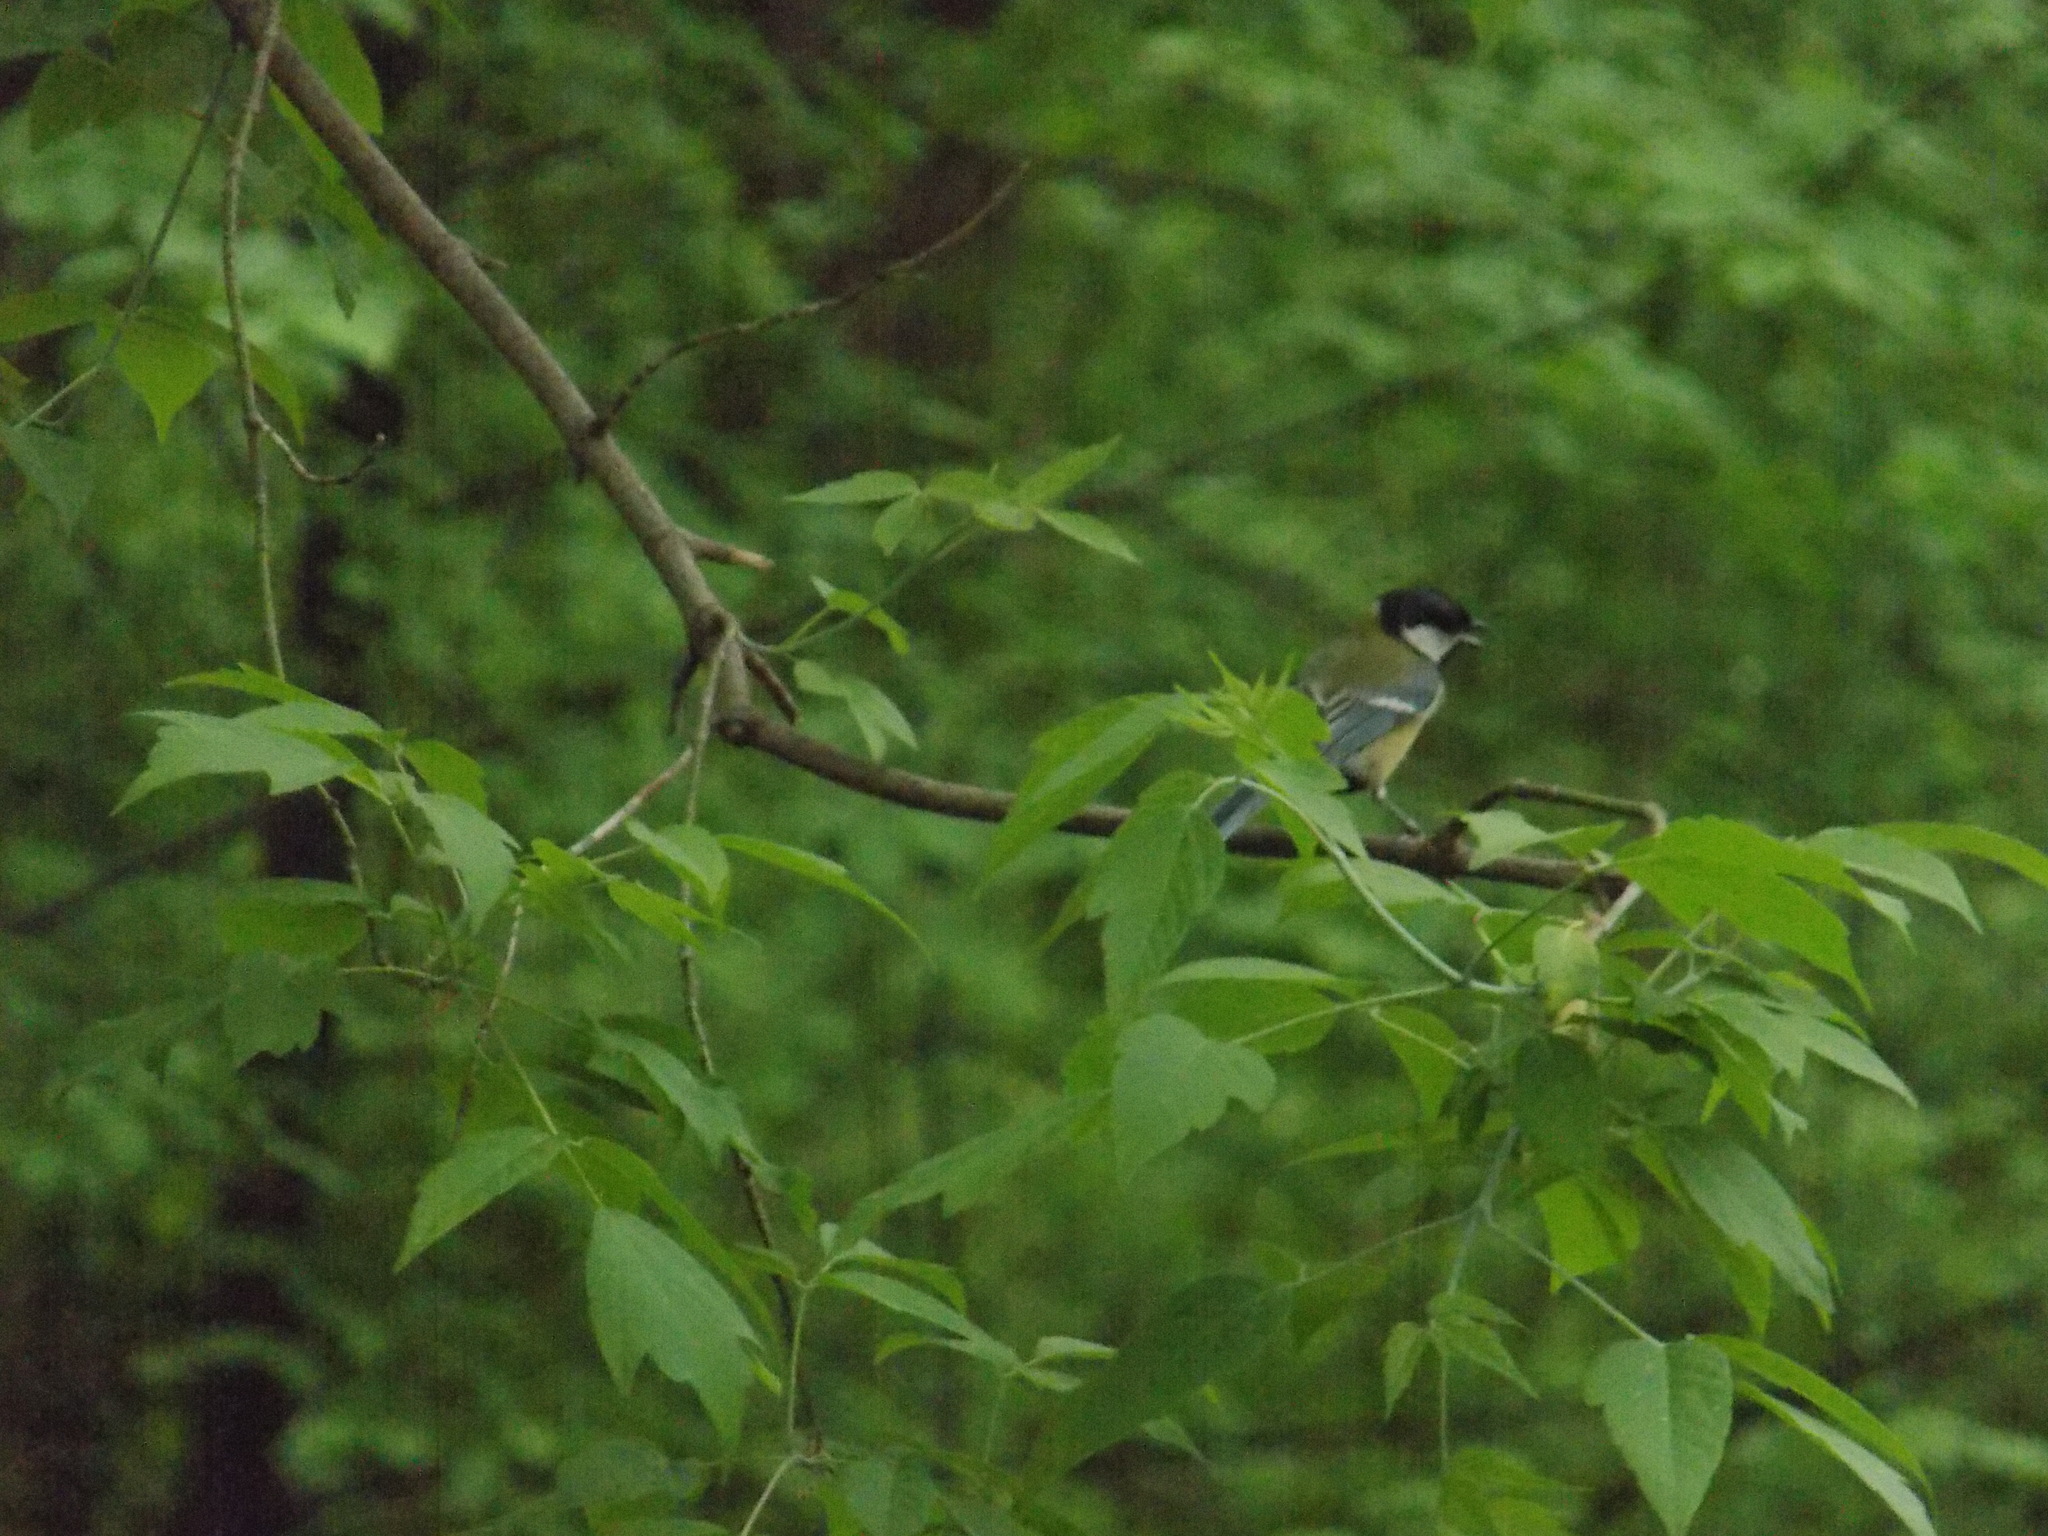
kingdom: Animalia
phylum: Chordata
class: Aves
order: Passeriformes
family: Paridae
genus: Parus
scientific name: Parus major
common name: Great tit
